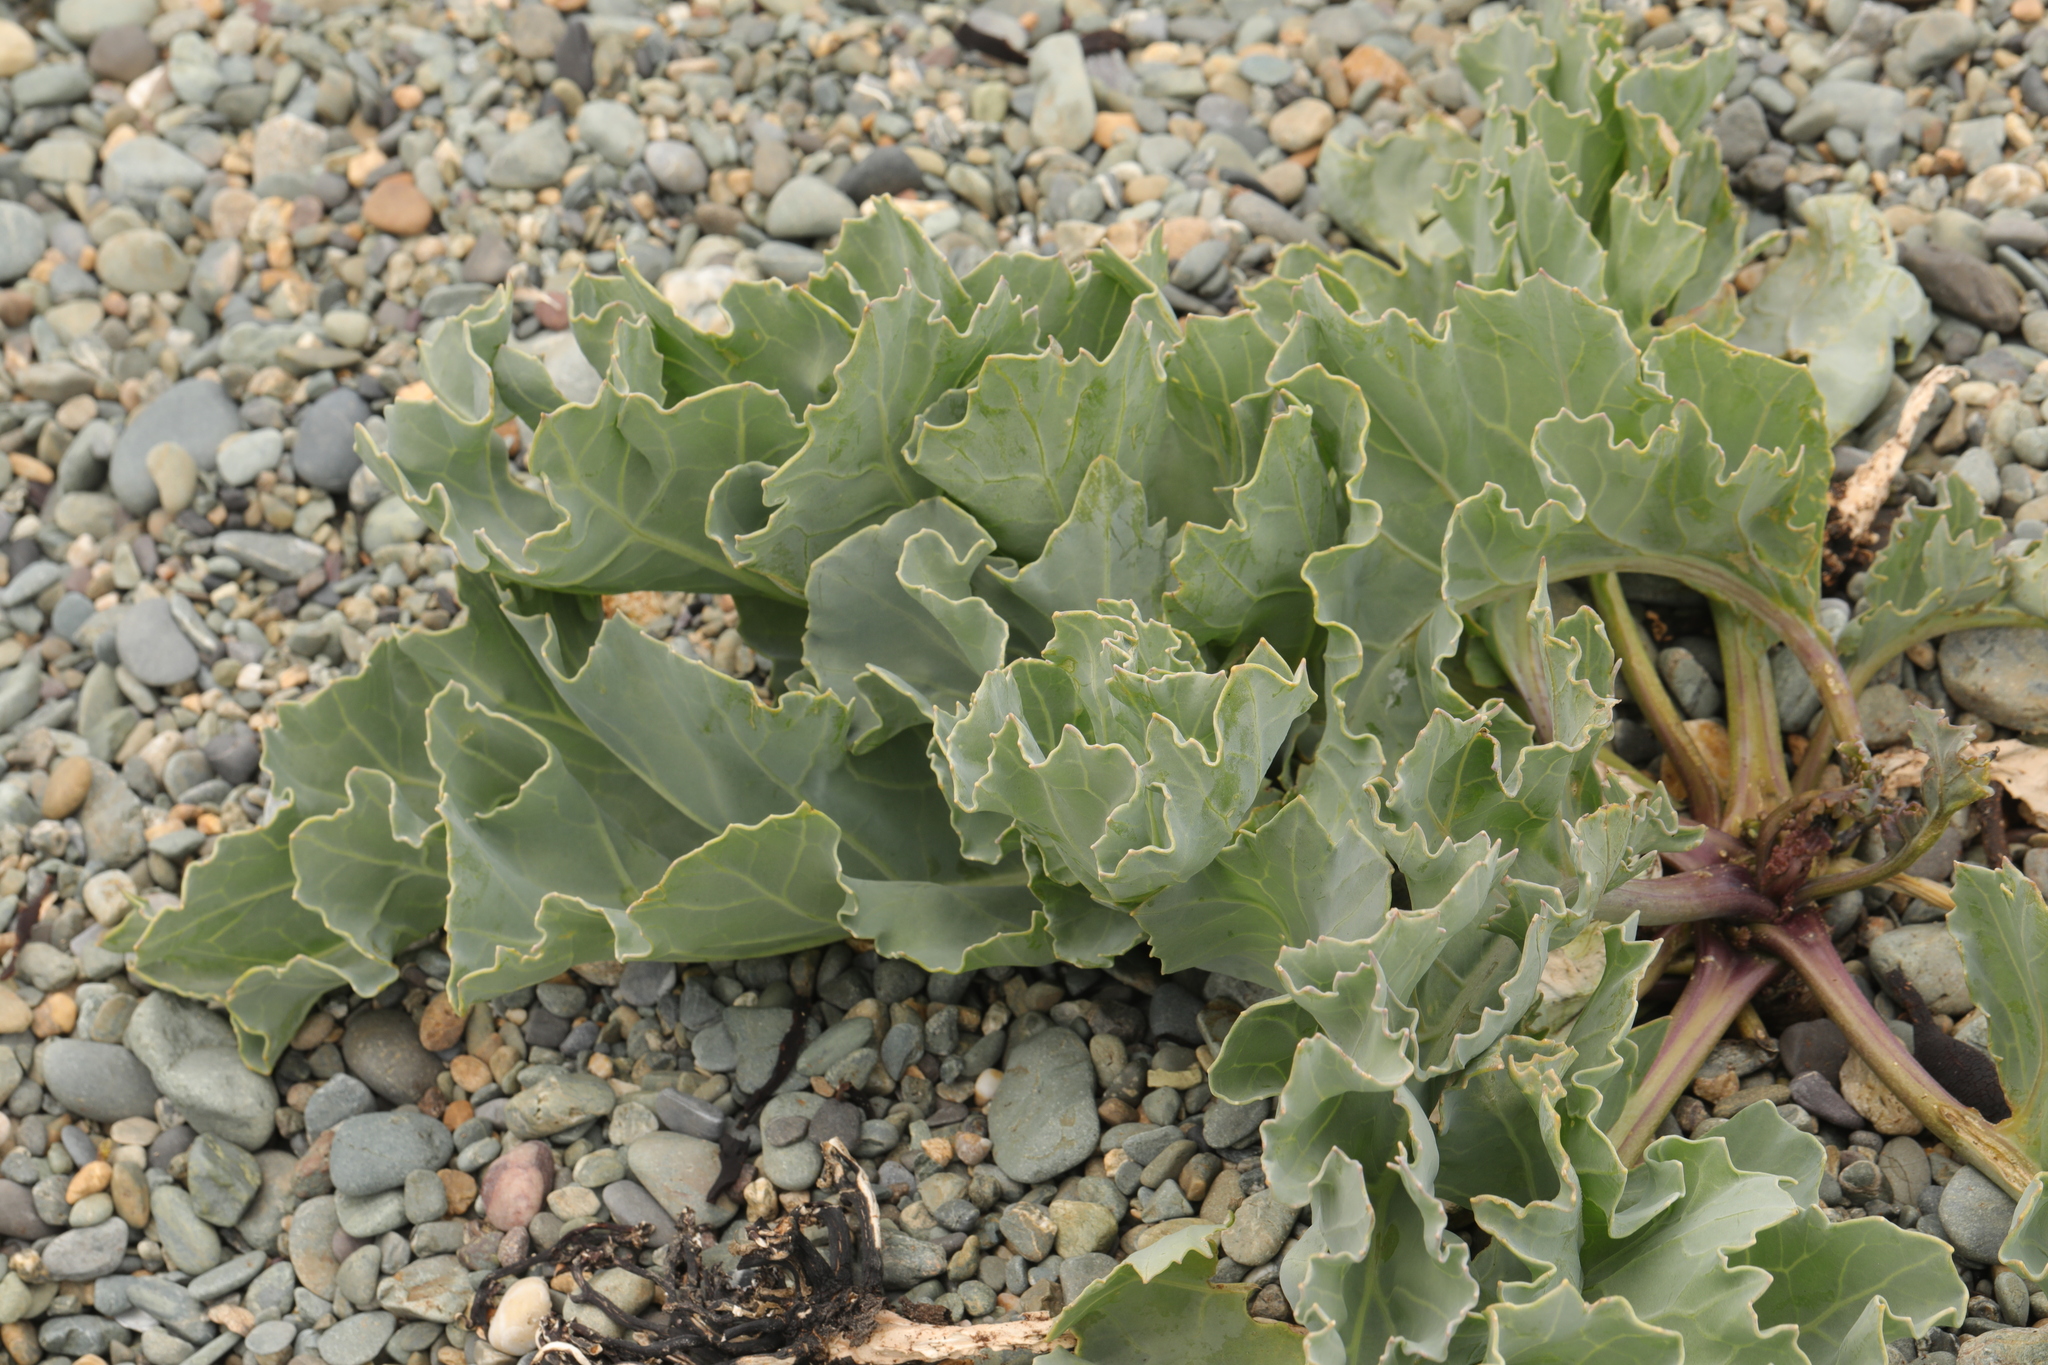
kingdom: Plantae
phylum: Tracheophyta
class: Magnoliopsida
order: Brassicales
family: Brassicaceae
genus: Crambe
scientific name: Crambe maritima
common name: Sea-kale
